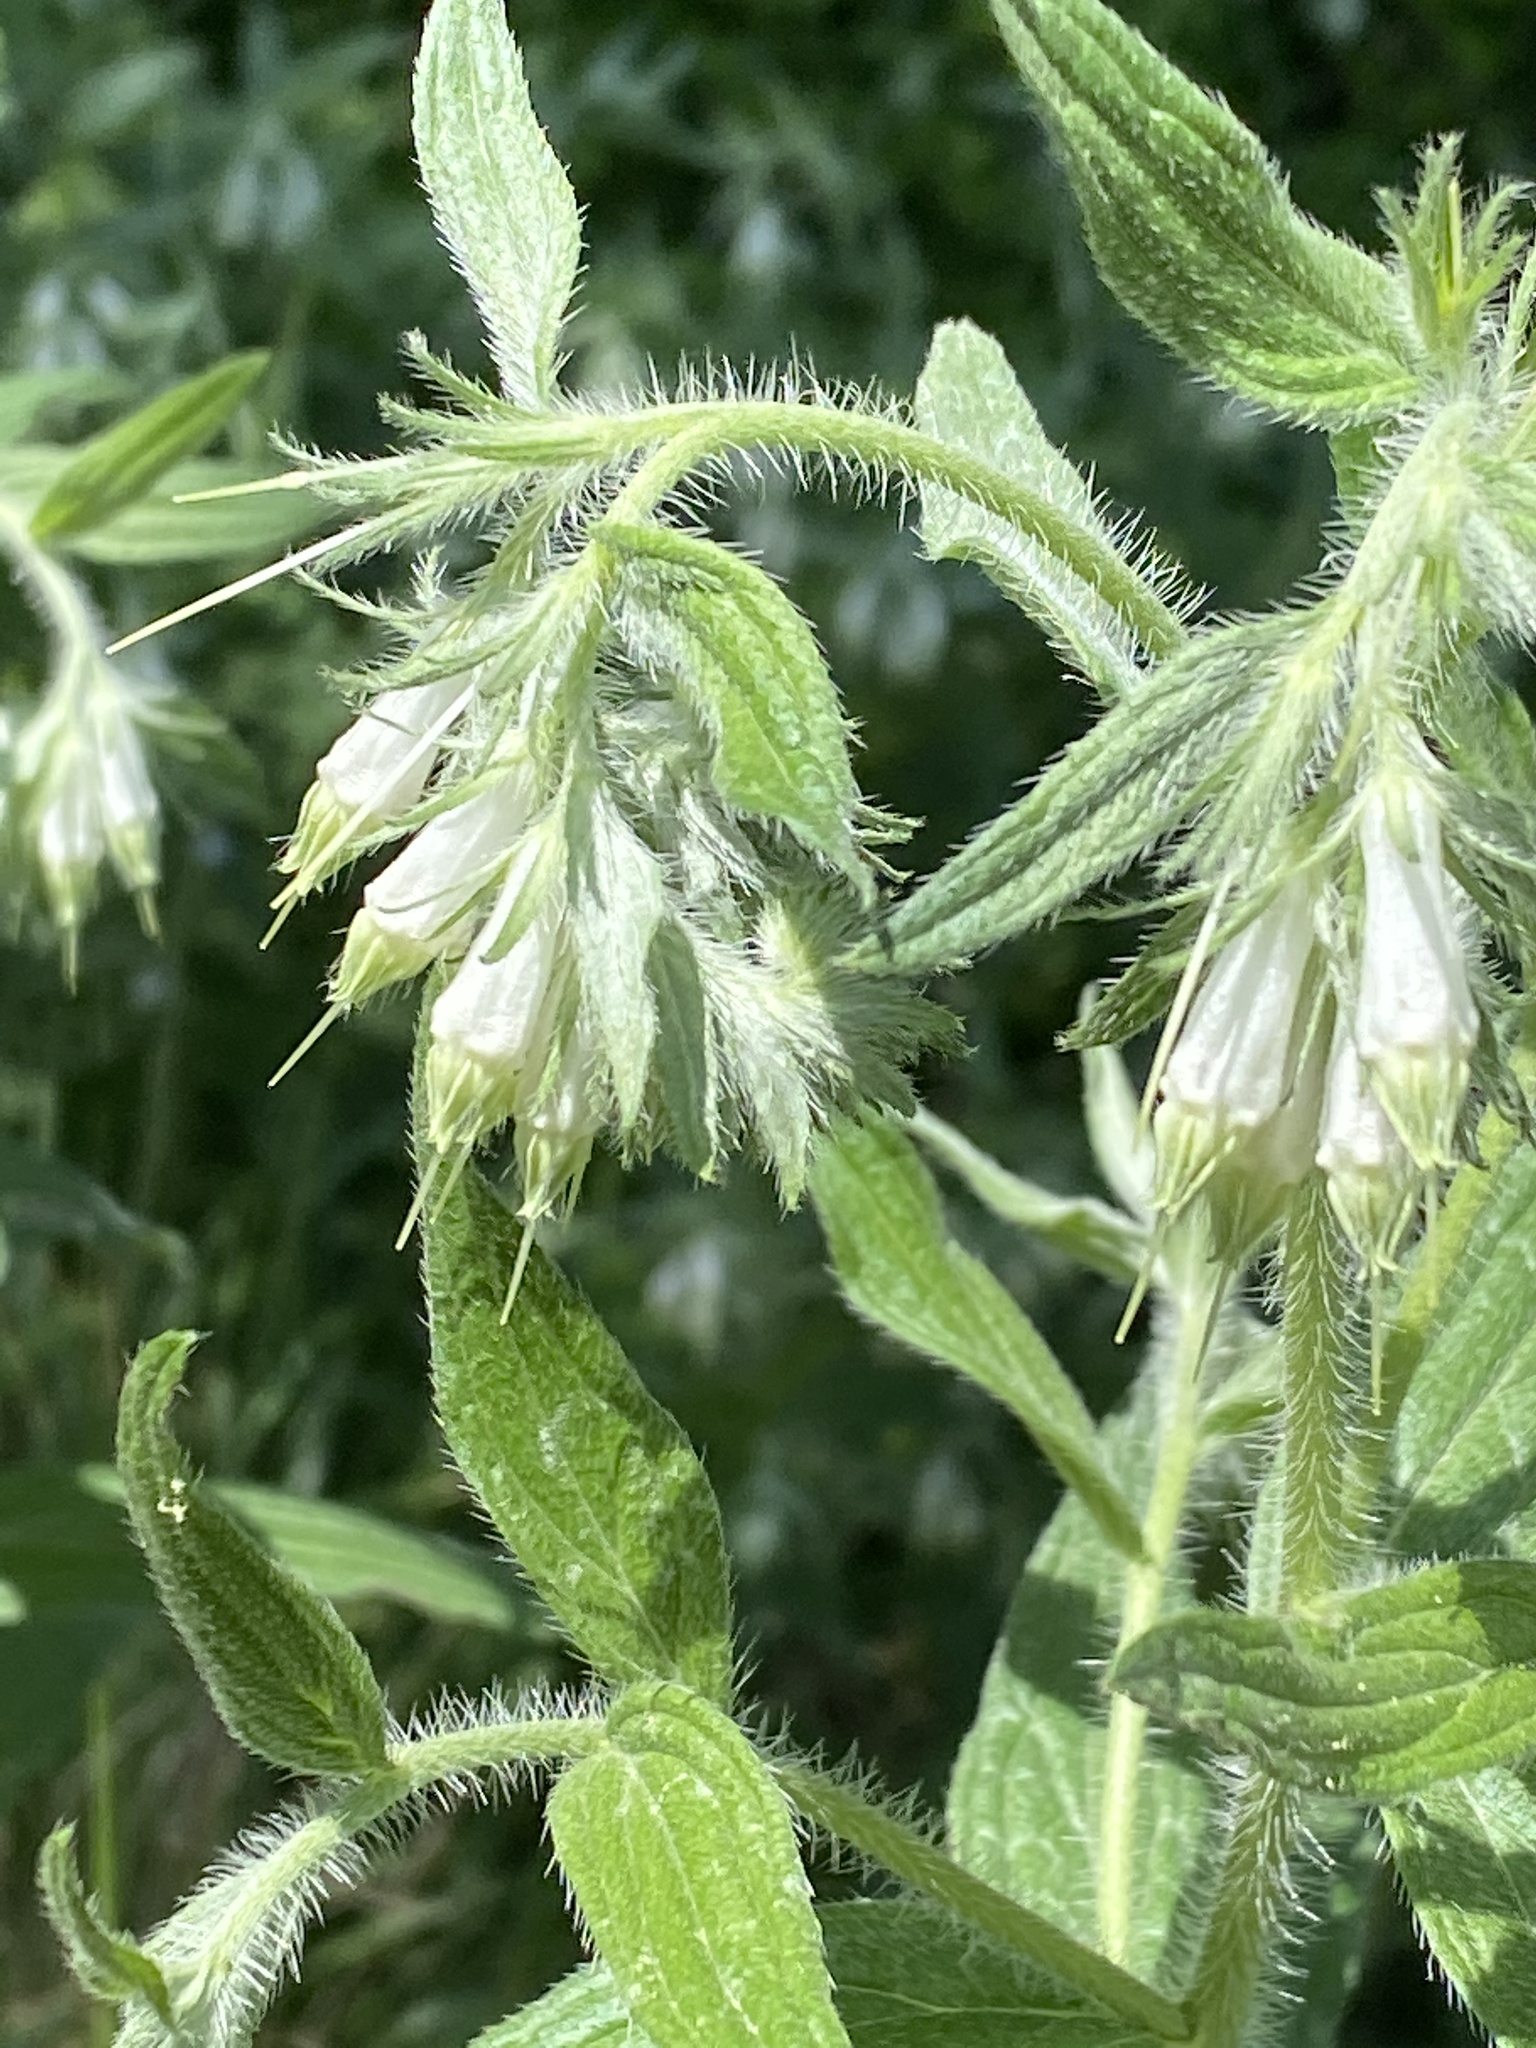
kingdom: Plantae
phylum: Tracheophyta
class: Magnoliopsida
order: Boraginales
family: Boraginaceae
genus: Lithospermum
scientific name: Lithospermum caroliniense
